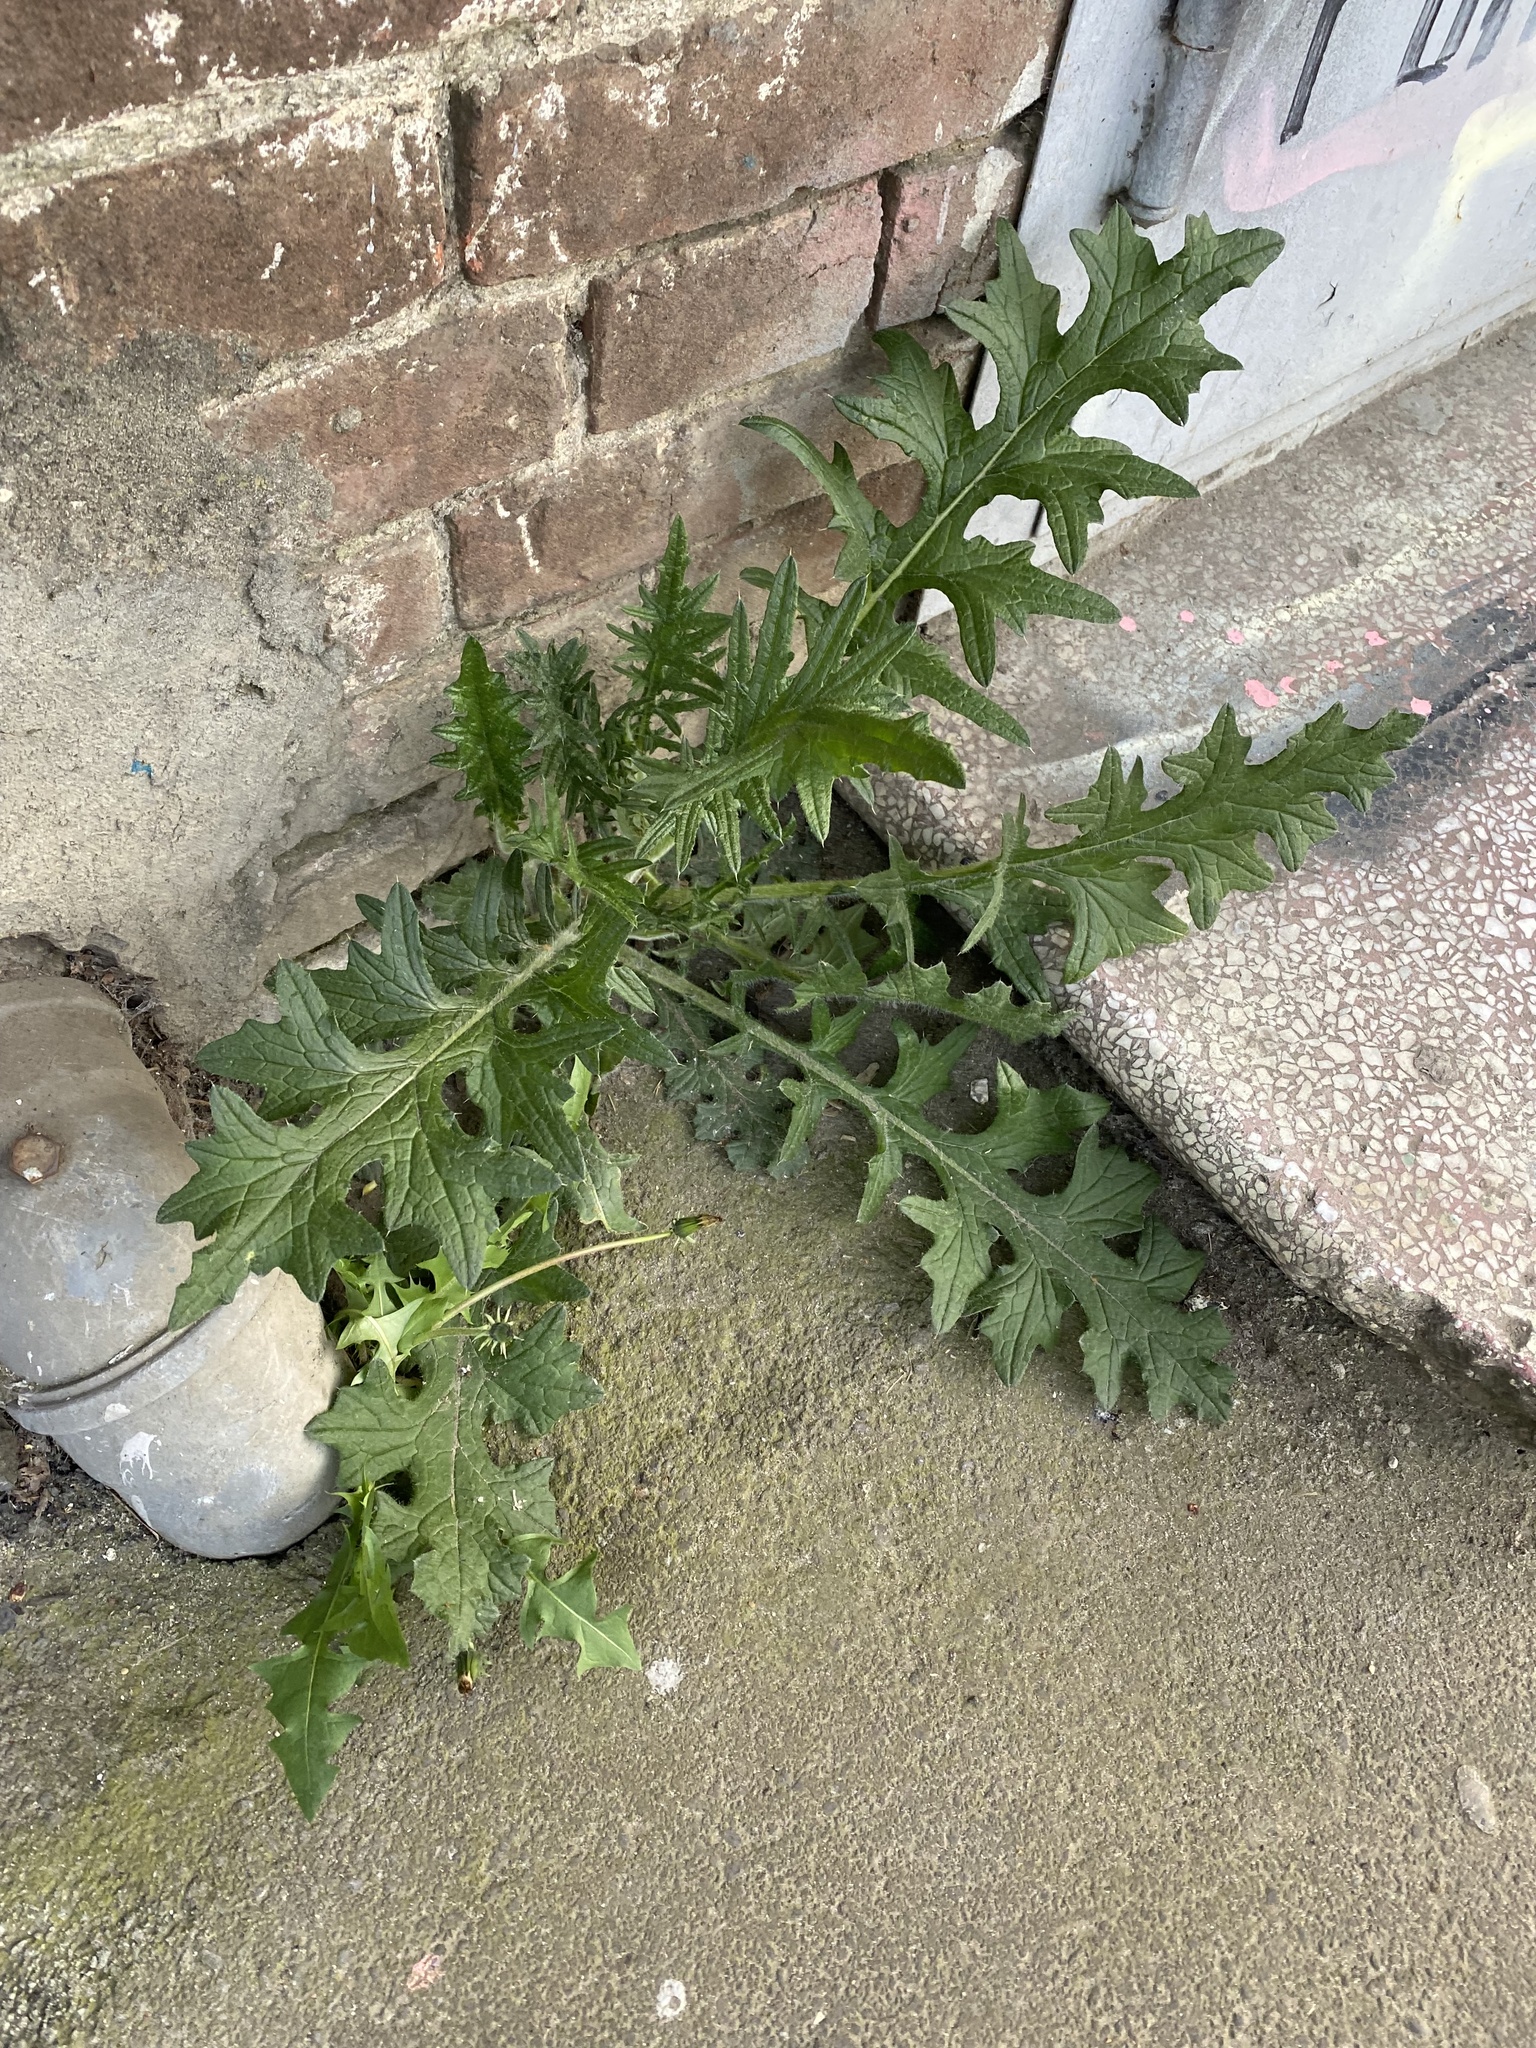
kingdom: Plantae
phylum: Tracheophyta
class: Magnoliopsida
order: Asterales
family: Asteraceae
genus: Cirsium
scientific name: Cirsium vulgare
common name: Bull thistle
